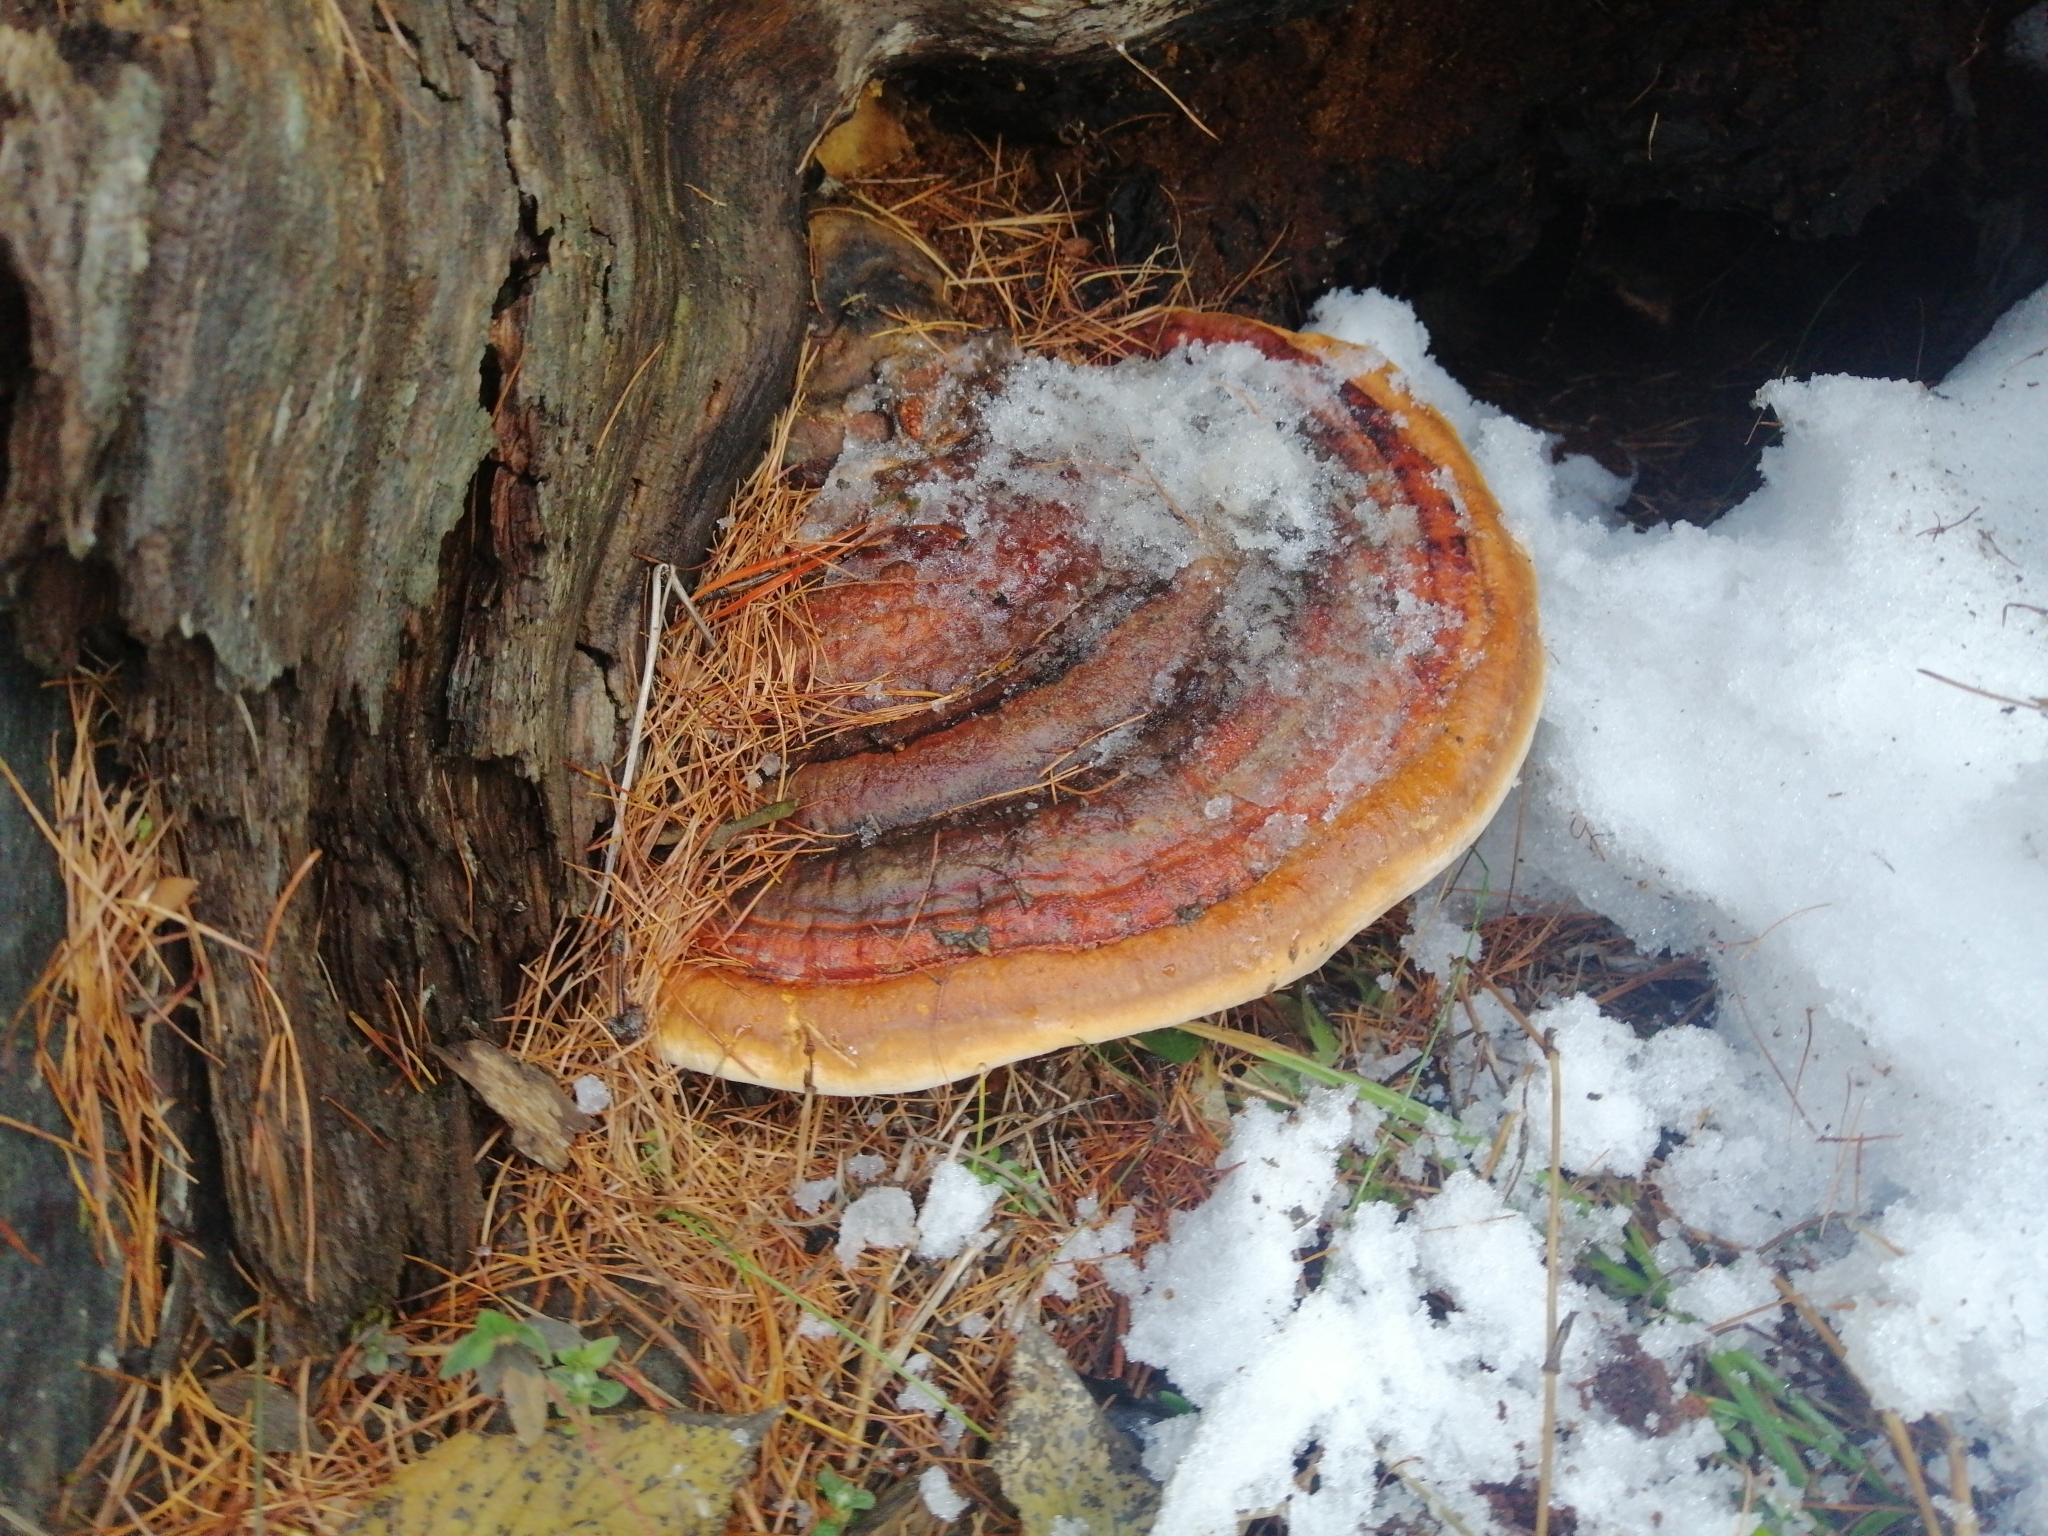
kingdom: Fungi
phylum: Basidiomycota
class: Agaricomycetes
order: Polyporales
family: Fomitopsidaceae
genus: Fomitopsis
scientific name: Fomitopsis pinicola
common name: Red-belted bracket
